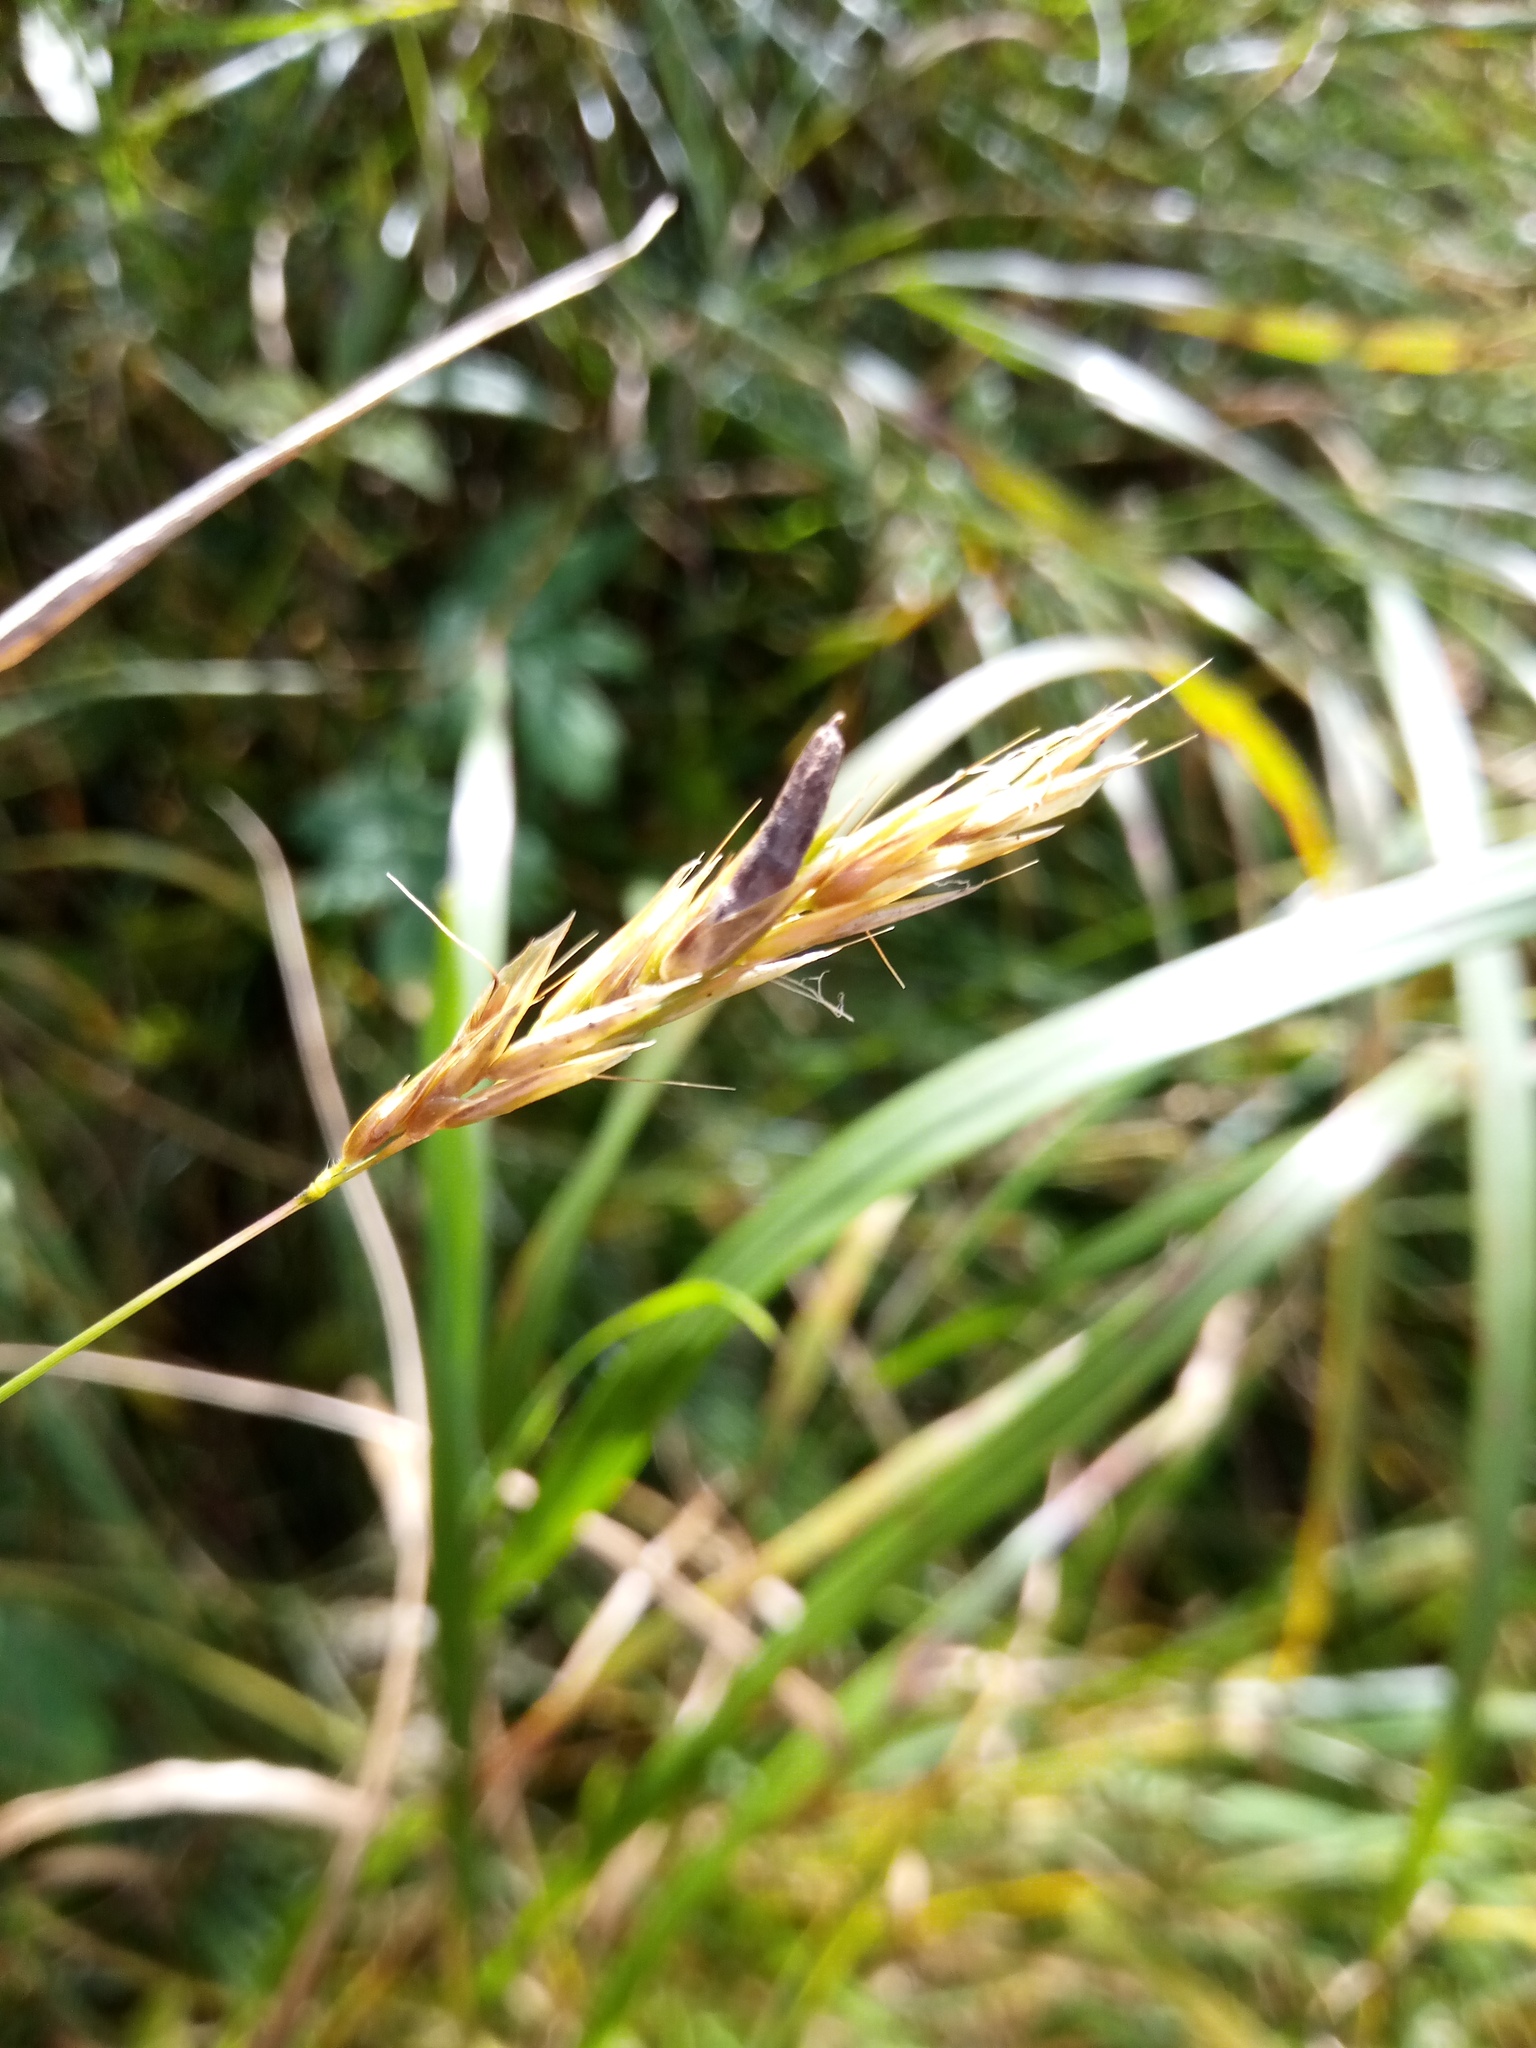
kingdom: Fungi
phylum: Ascomycota
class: Sordariomycetes
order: Hypocreales
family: Clavicipitaceae
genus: Claviceps
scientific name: Claviceps purpurea
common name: Rye ergot
